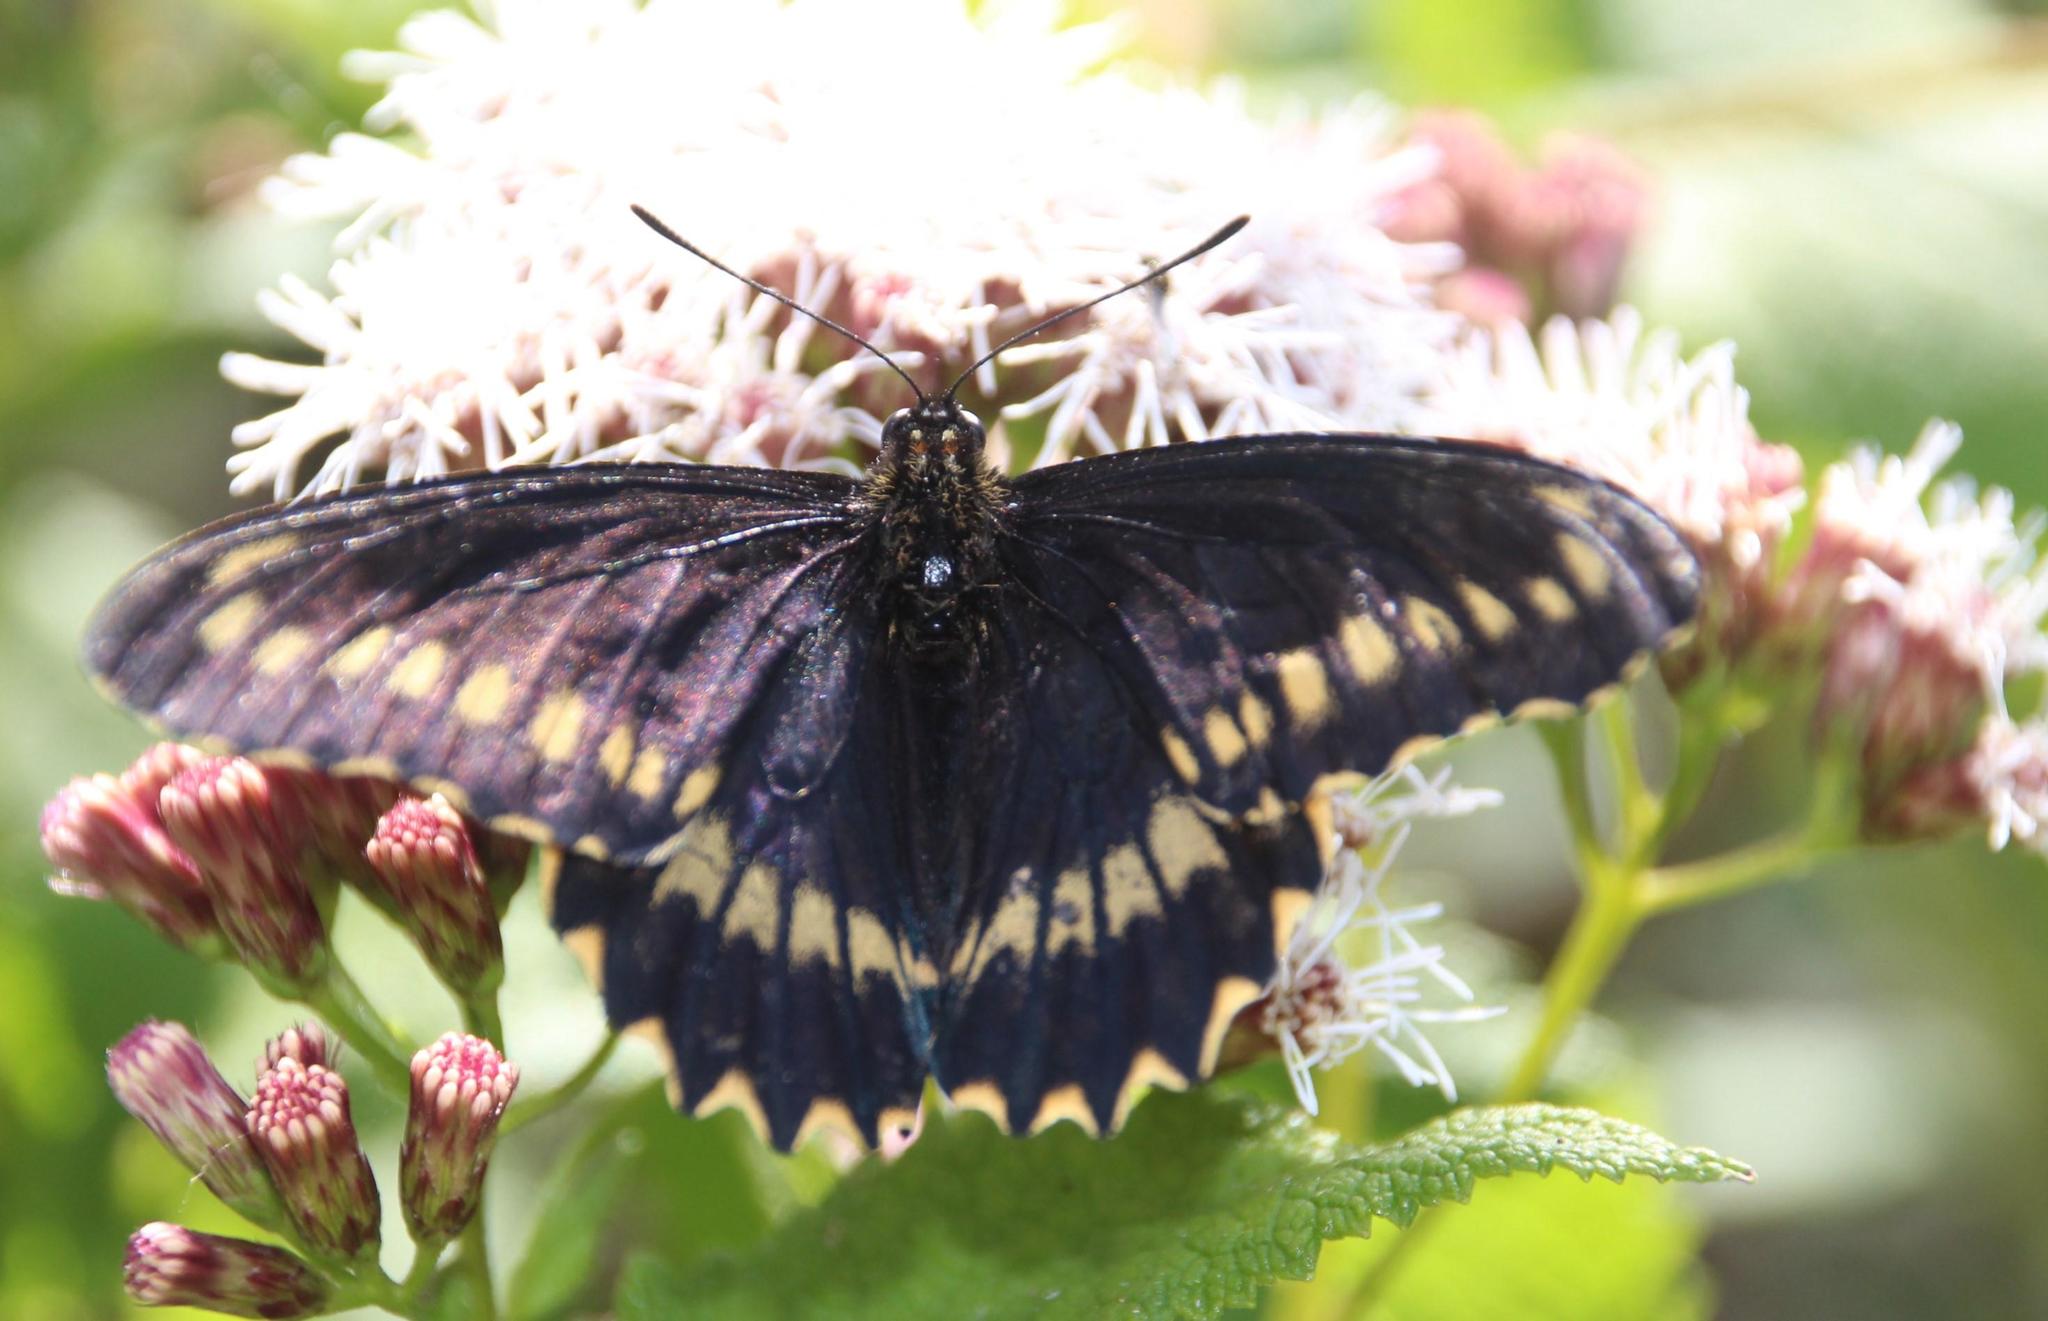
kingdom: Animalia
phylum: Arthropoda
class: Insecta
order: Lepidoptera
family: Papilionidae
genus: Battus
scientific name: Battus polydamas
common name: Polydamas swallowtail
